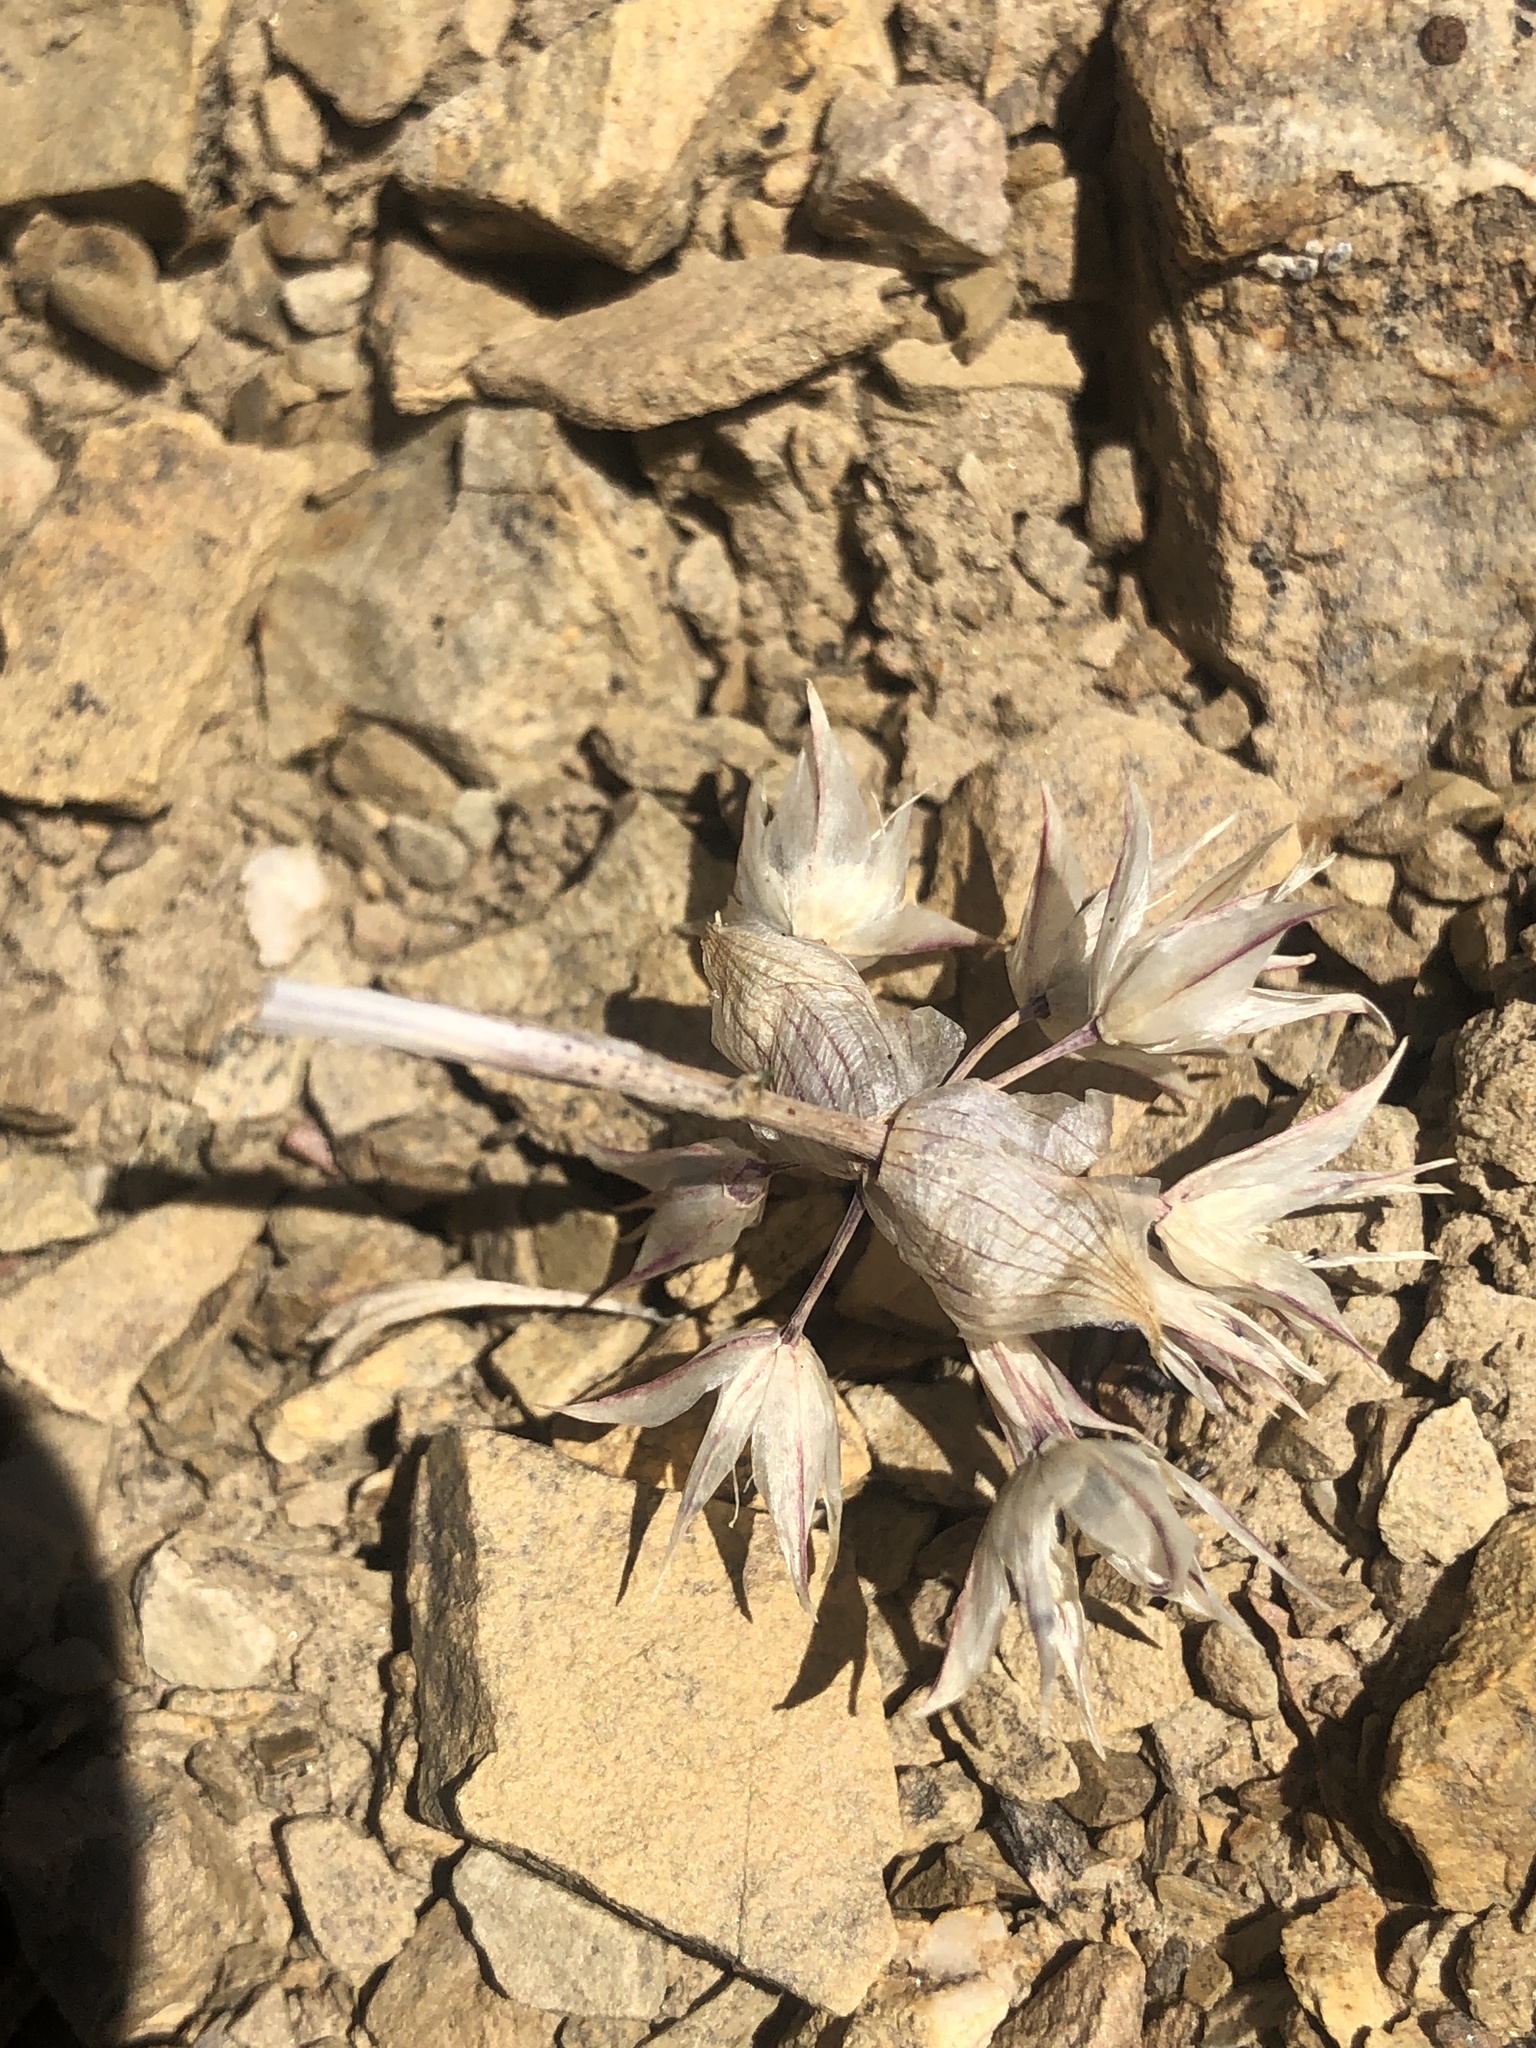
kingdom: Plantae
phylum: Tracheophyta
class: Liliopsida
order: Asparagales
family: Amaryllidaceae
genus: Allium
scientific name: Allium atrorubens
